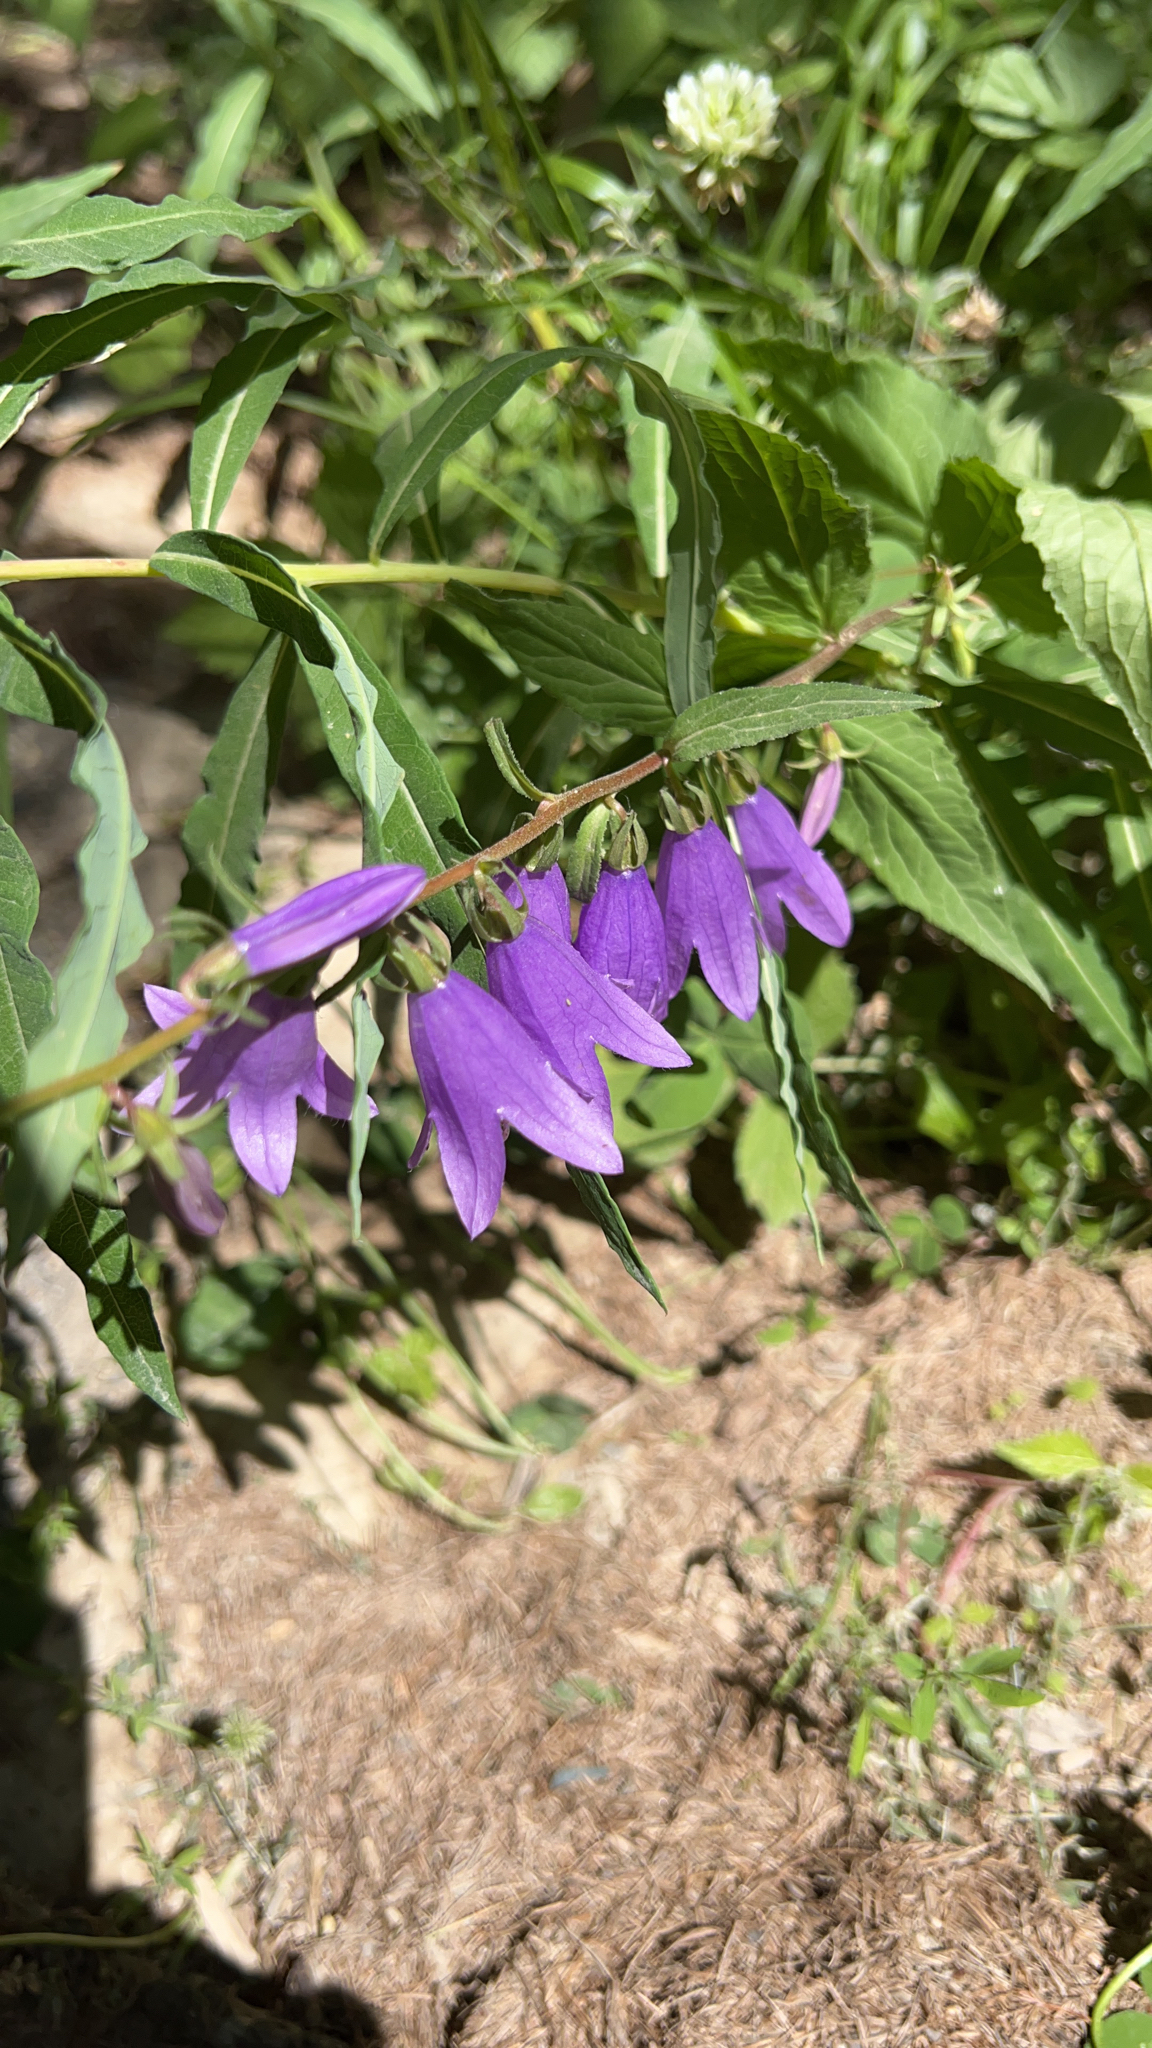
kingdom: Plantae
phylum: Tracheophyta
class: Magnoliopsida
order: Asterales
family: Campanulaceae
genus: Campanula
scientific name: Campanula rapunculoides
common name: Creeping bellflower
